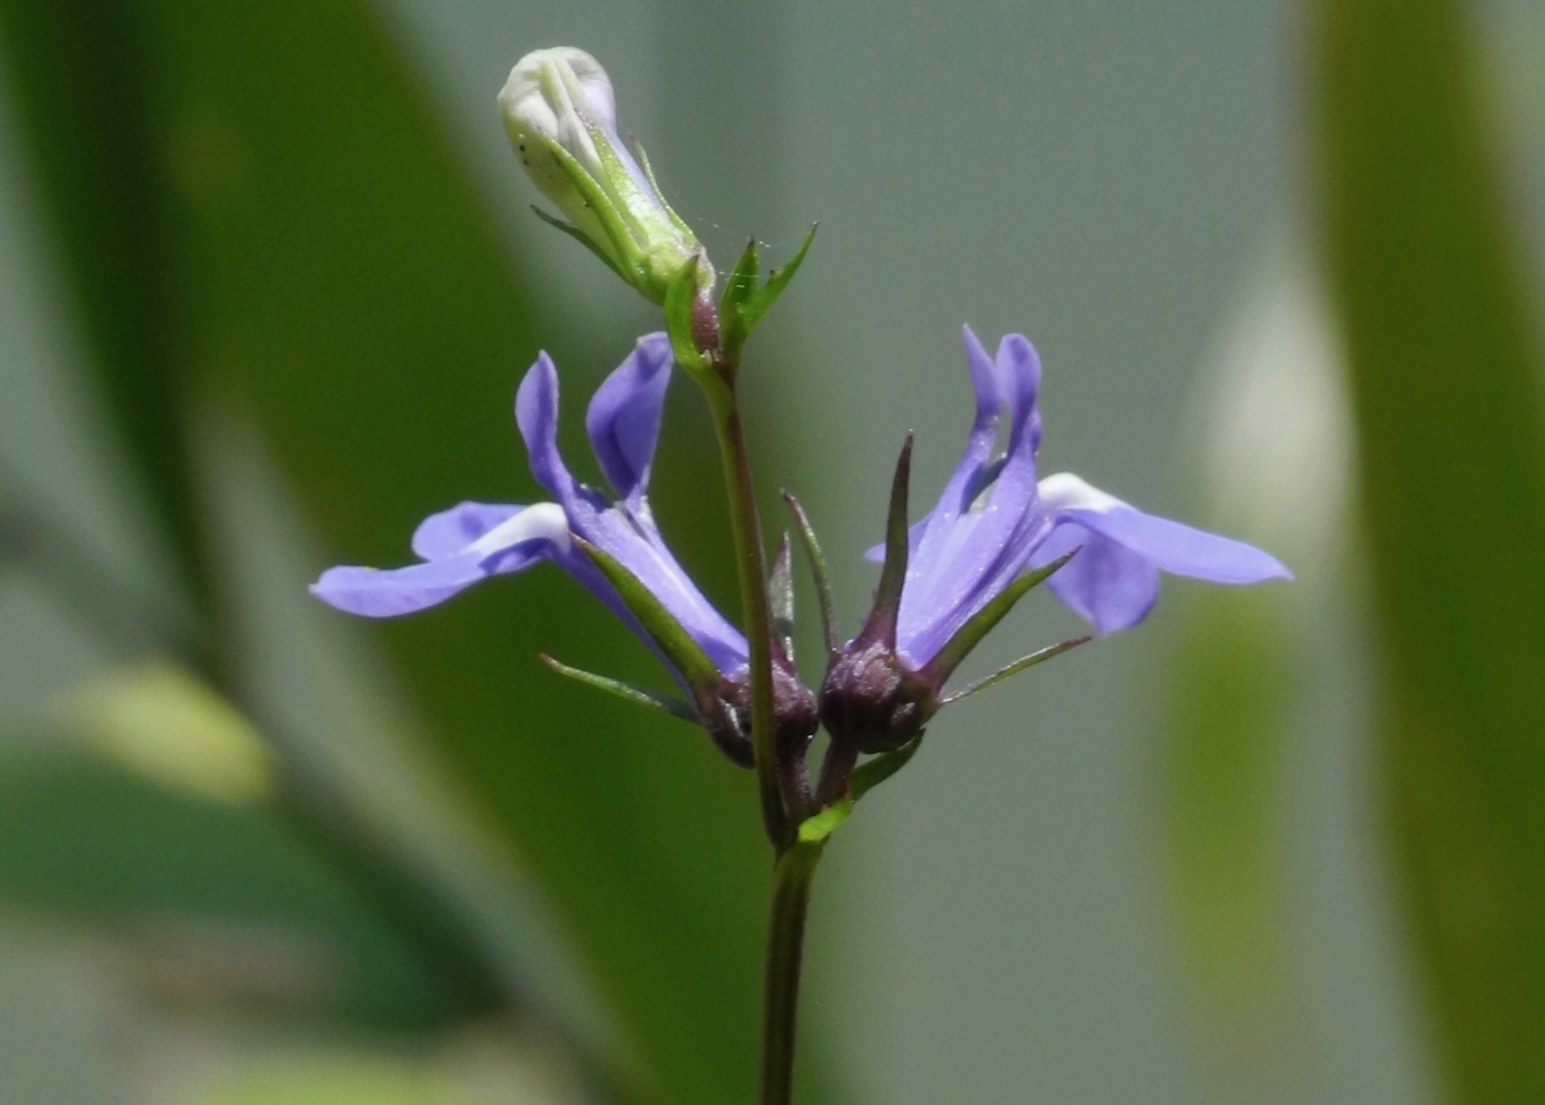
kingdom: Plantae
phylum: Tracheophyta
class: Magnoliopsida
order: Asterales
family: Campanulaceae
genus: Lobelia
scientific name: Lobelia amoena
